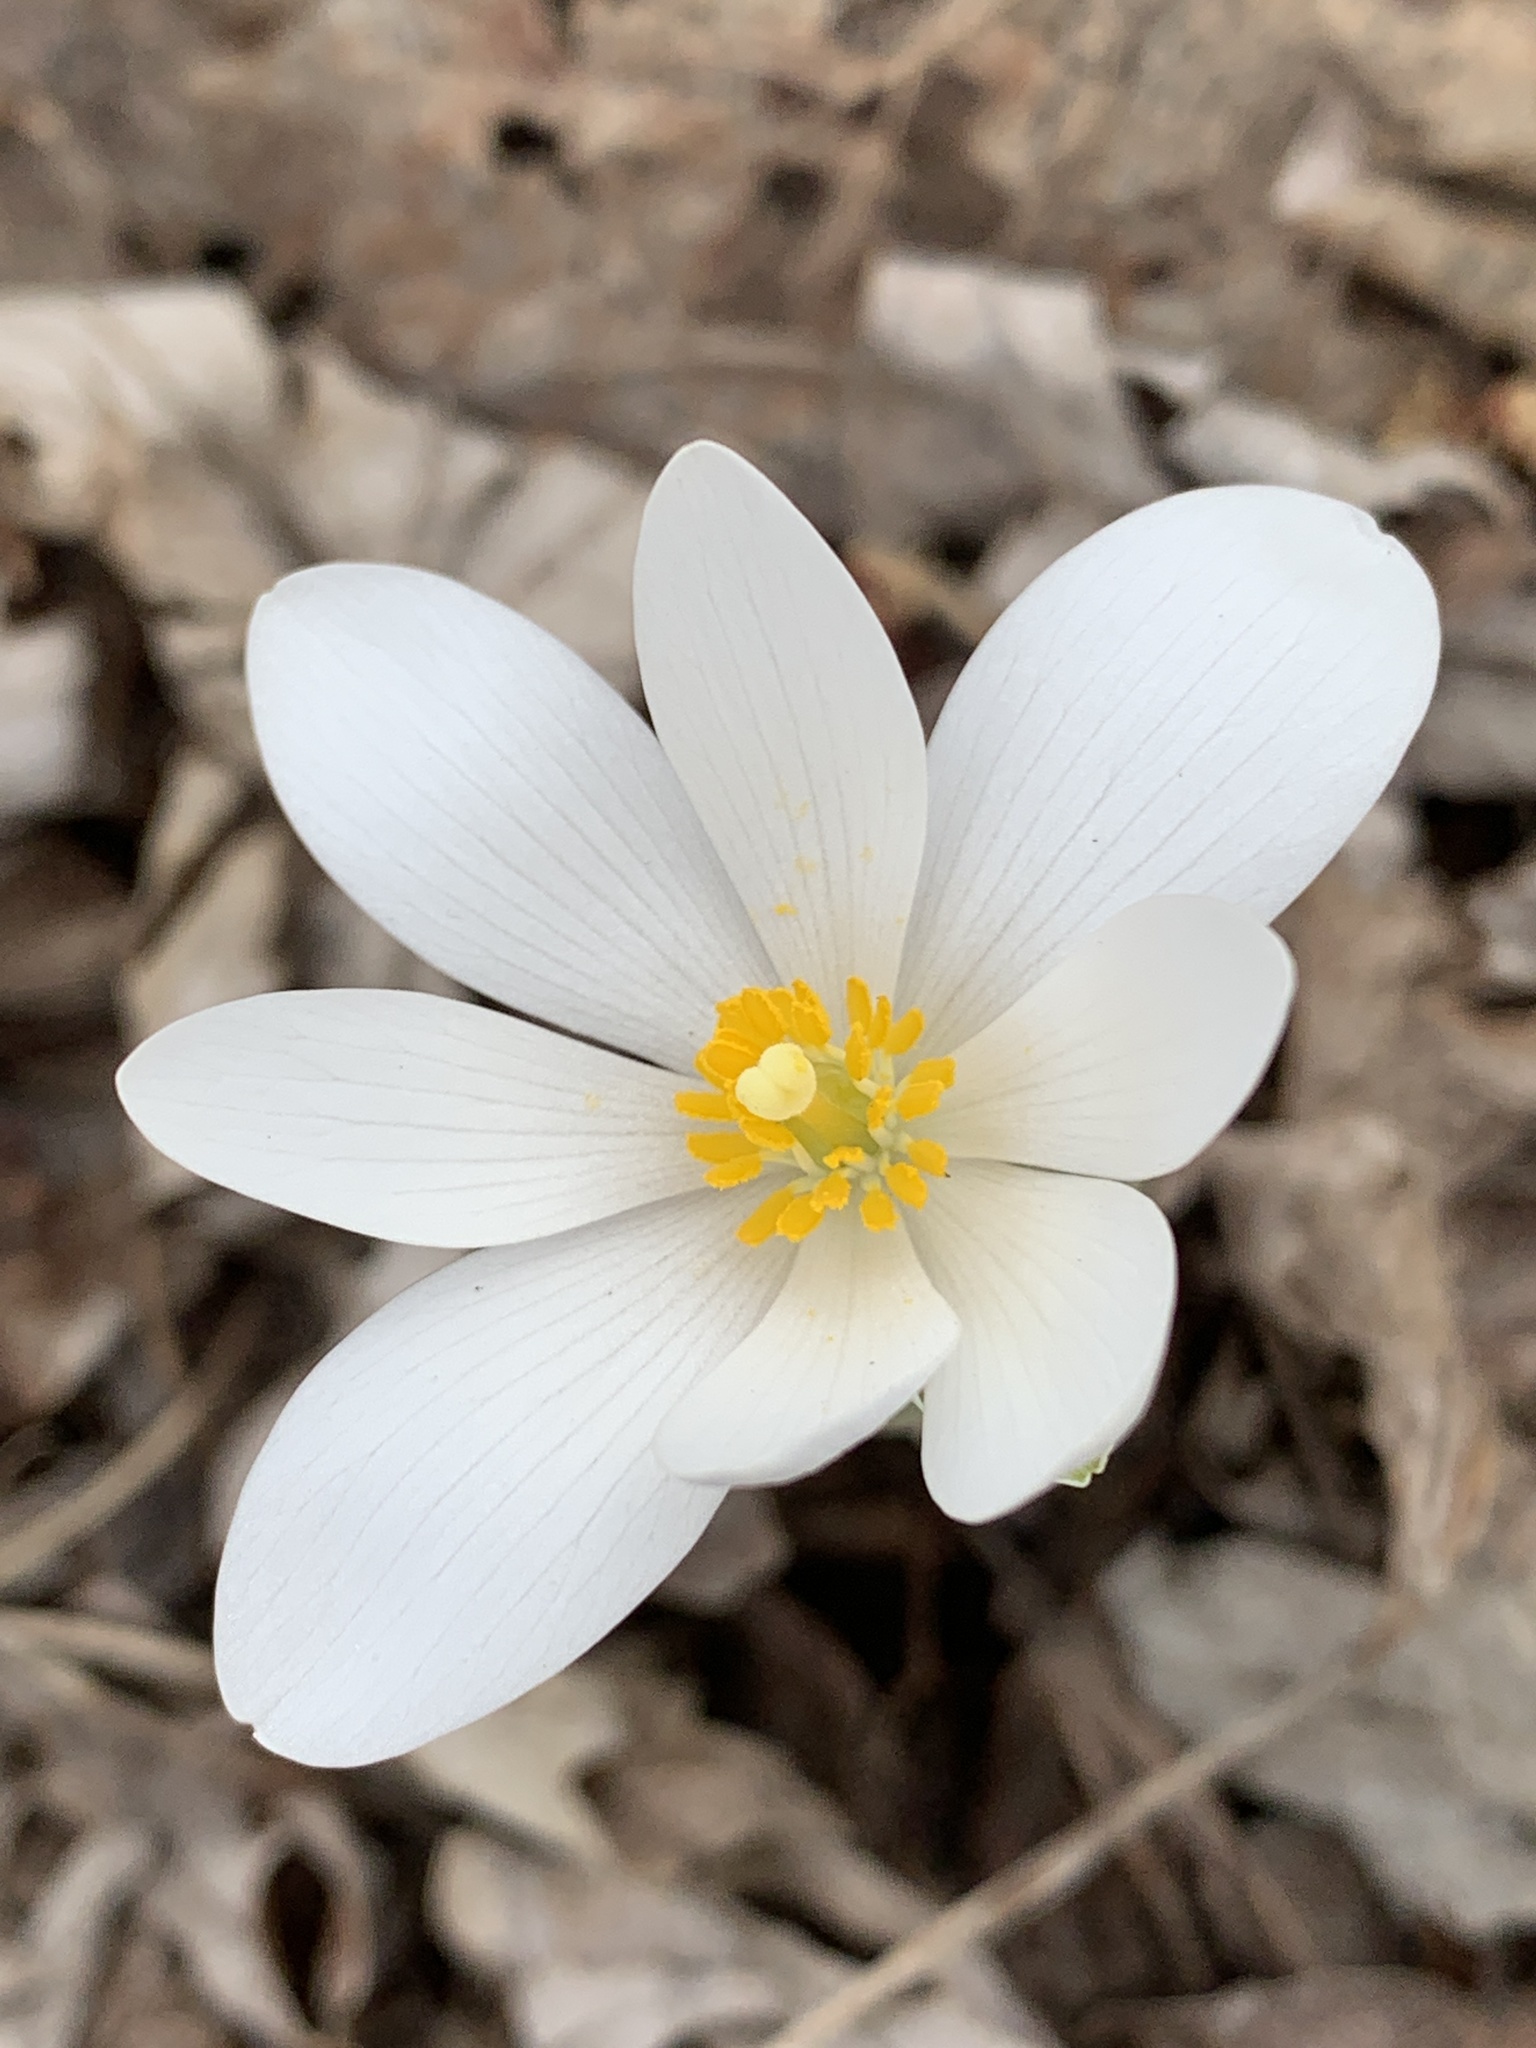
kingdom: Plantae
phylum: Tracheophyta
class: Magnoliopsida
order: Ranunculales
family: Papaveraceae
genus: Sanguinaria
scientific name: Sanguinaria canadensis
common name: Bloodroot
